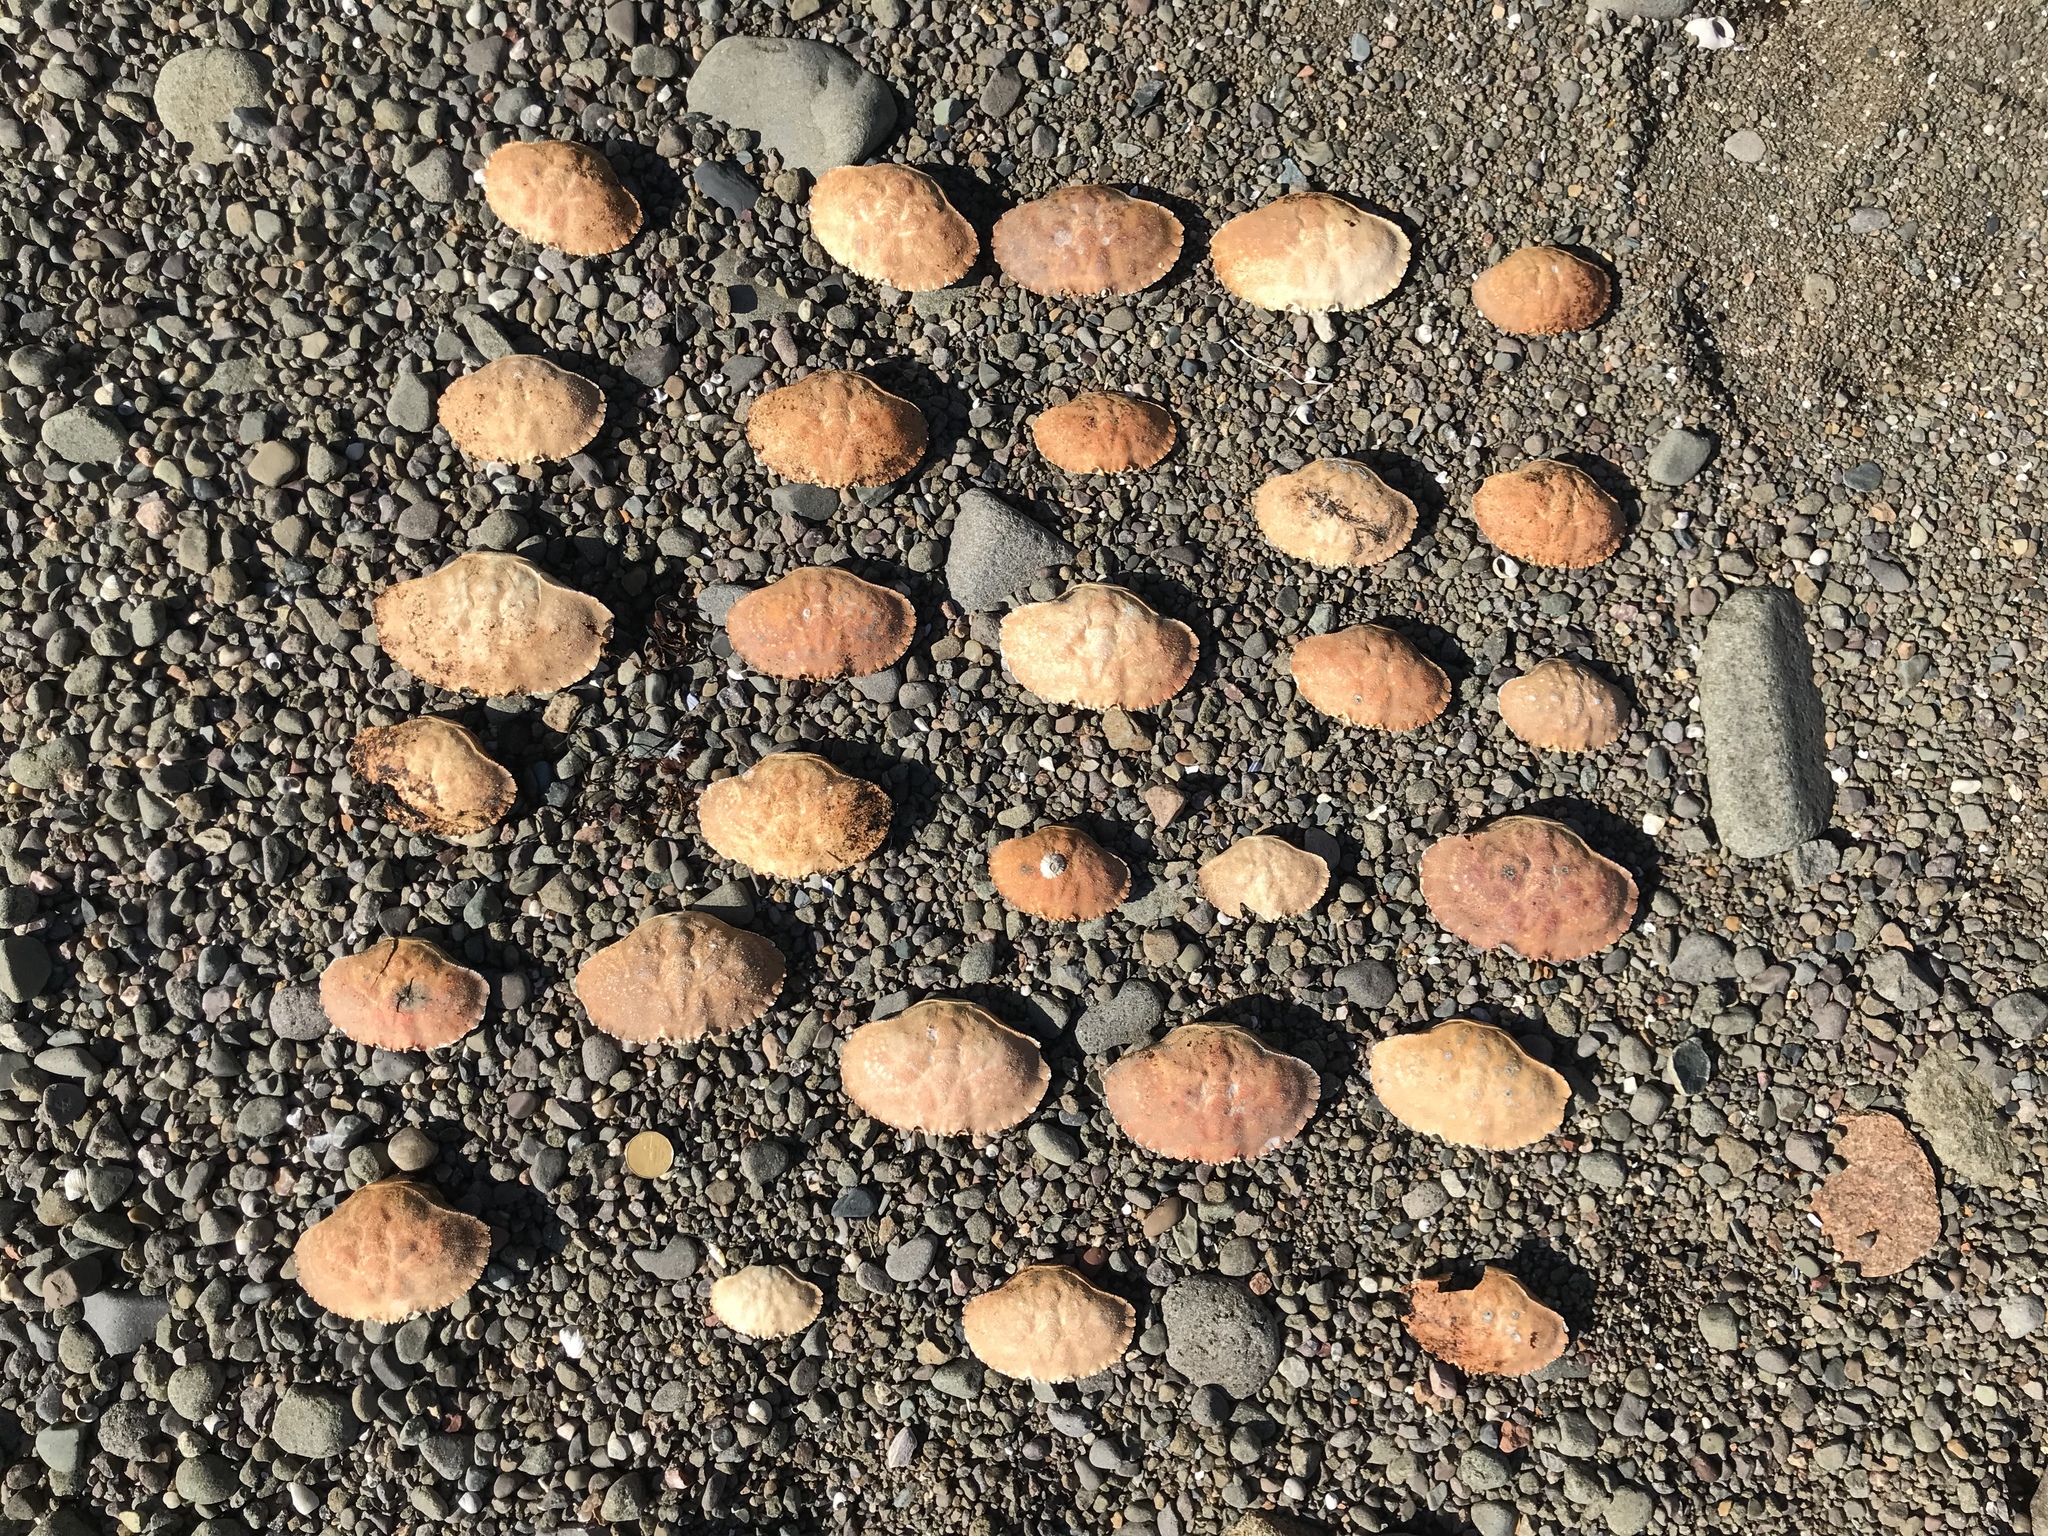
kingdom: Animalia
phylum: Arthropoda
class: Malacostraca
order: Decapoda
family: Cancridae
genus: Cancer
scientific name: Cancer borealis
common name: Jonah crab
